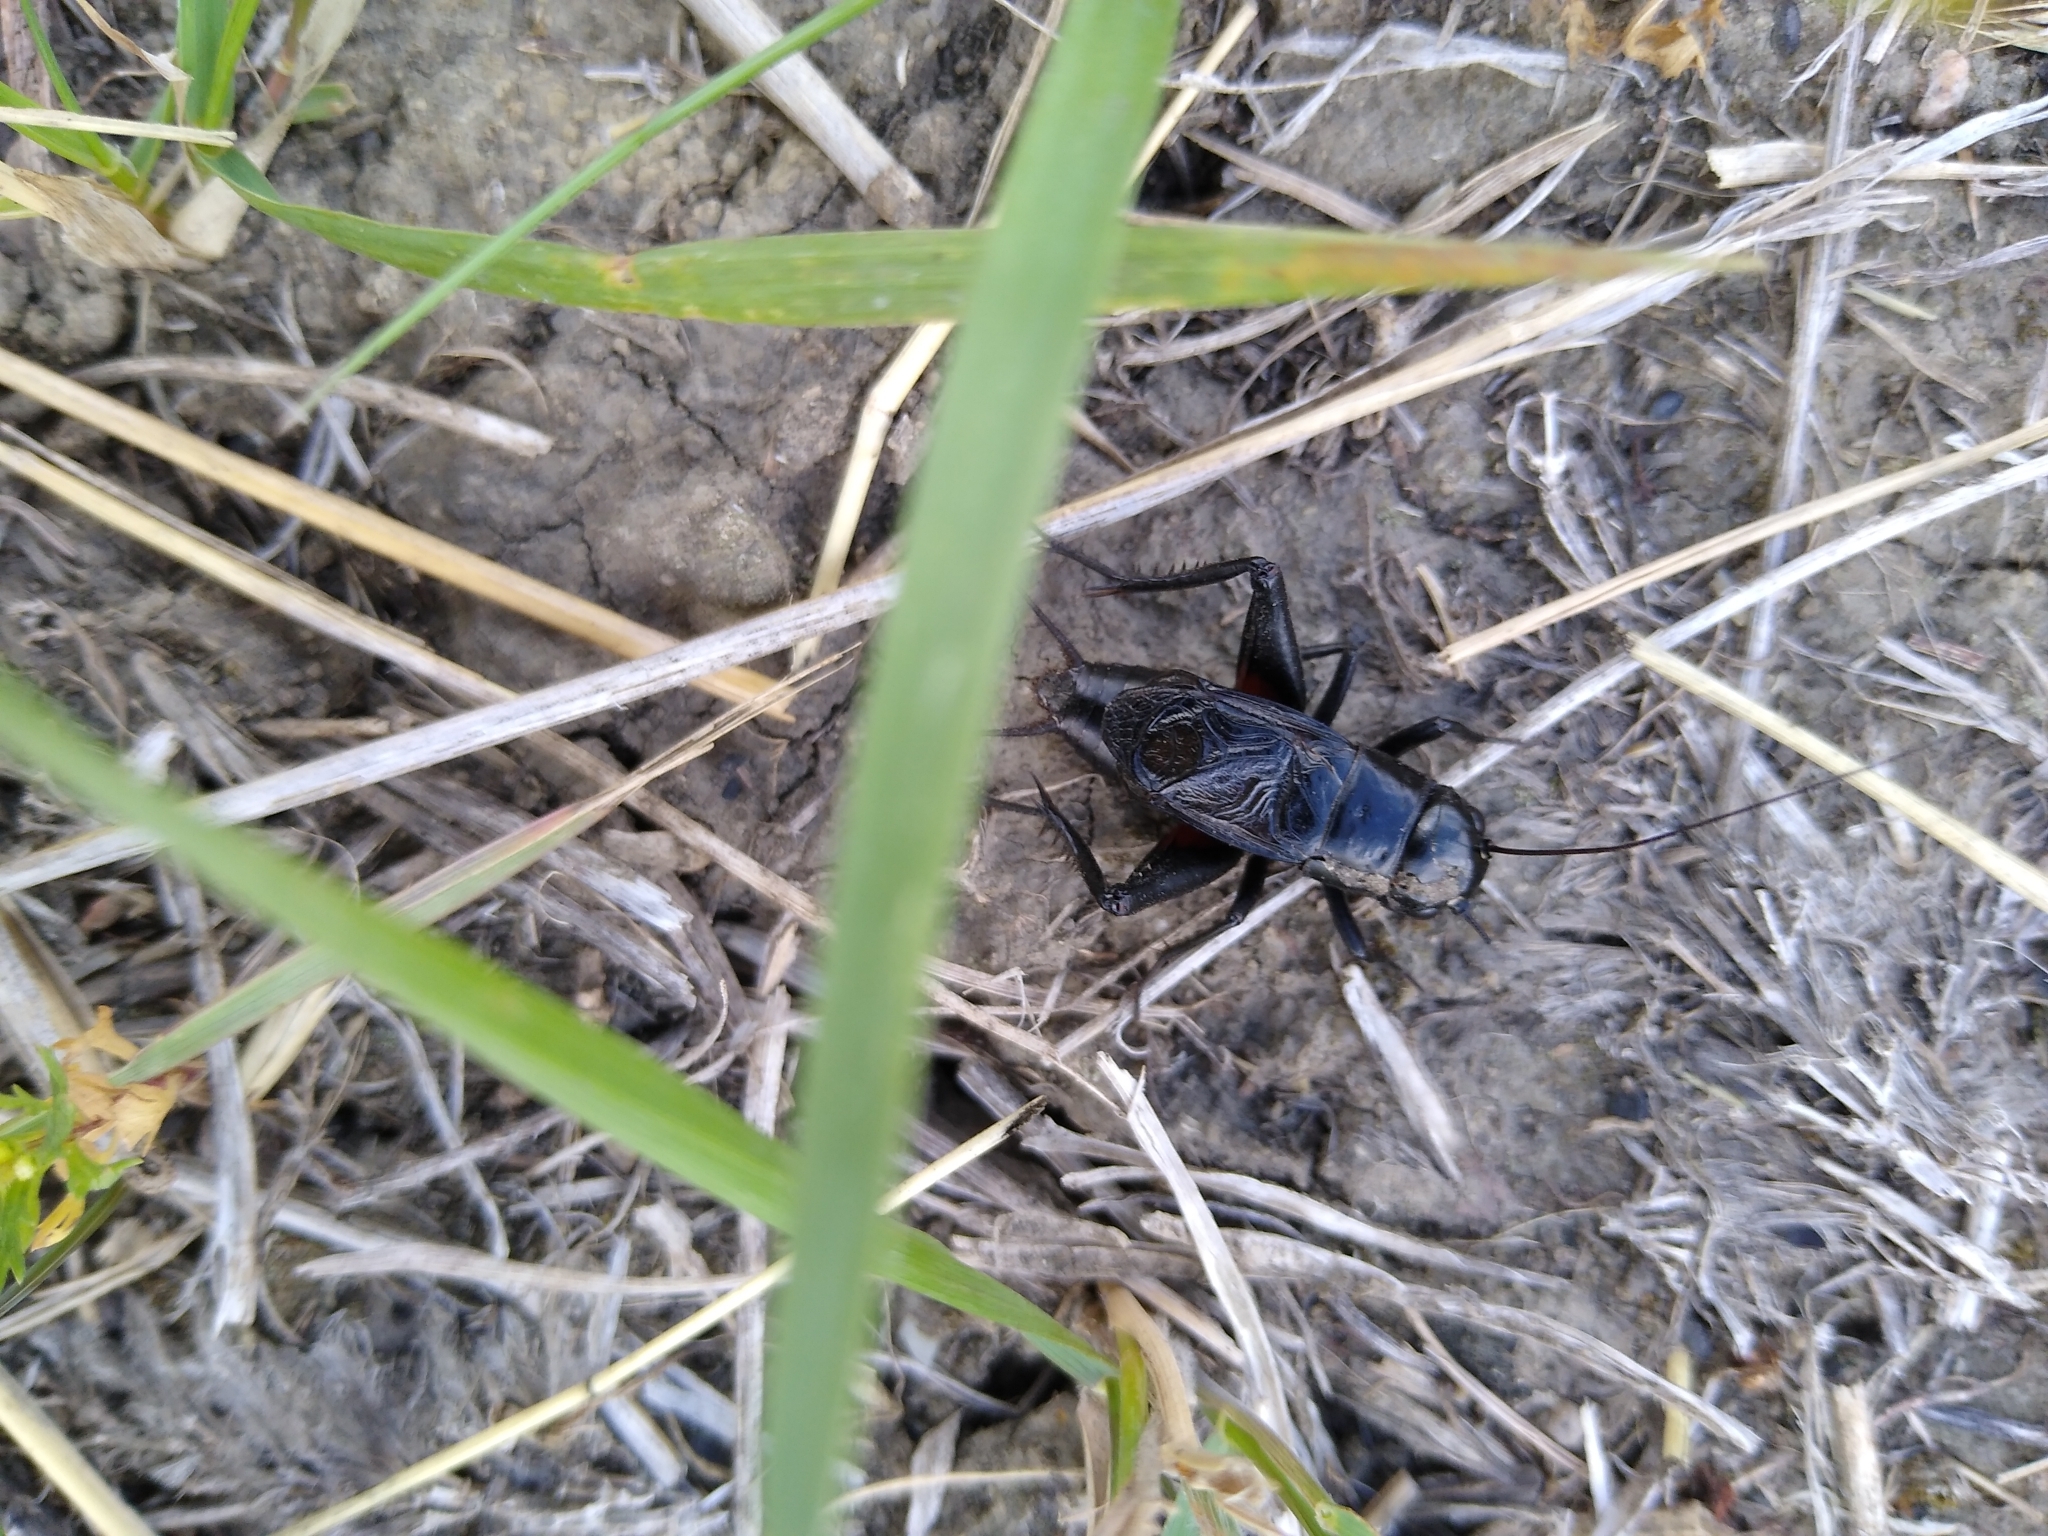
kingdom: Animalia
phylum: Arthropoda
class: Insecta
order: Orthoptera
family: Gryllidae
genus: Gryllus
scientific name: Gryllus pennsylvanicus
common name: Fall field cricket
